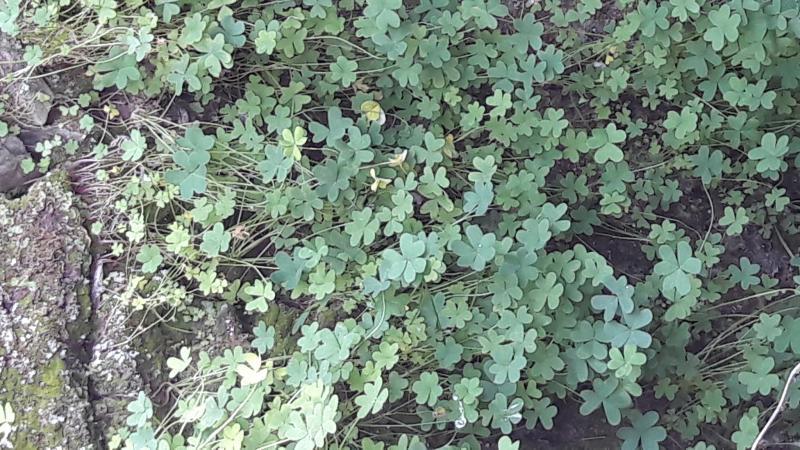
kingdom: Plantae
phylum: Tracheophyta
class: Magnoliopsida
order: Oxalidales
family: Oxalidaceae
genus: Oxalis
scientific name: Oxalis pes-caprae
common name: Bermuda-buttercup
